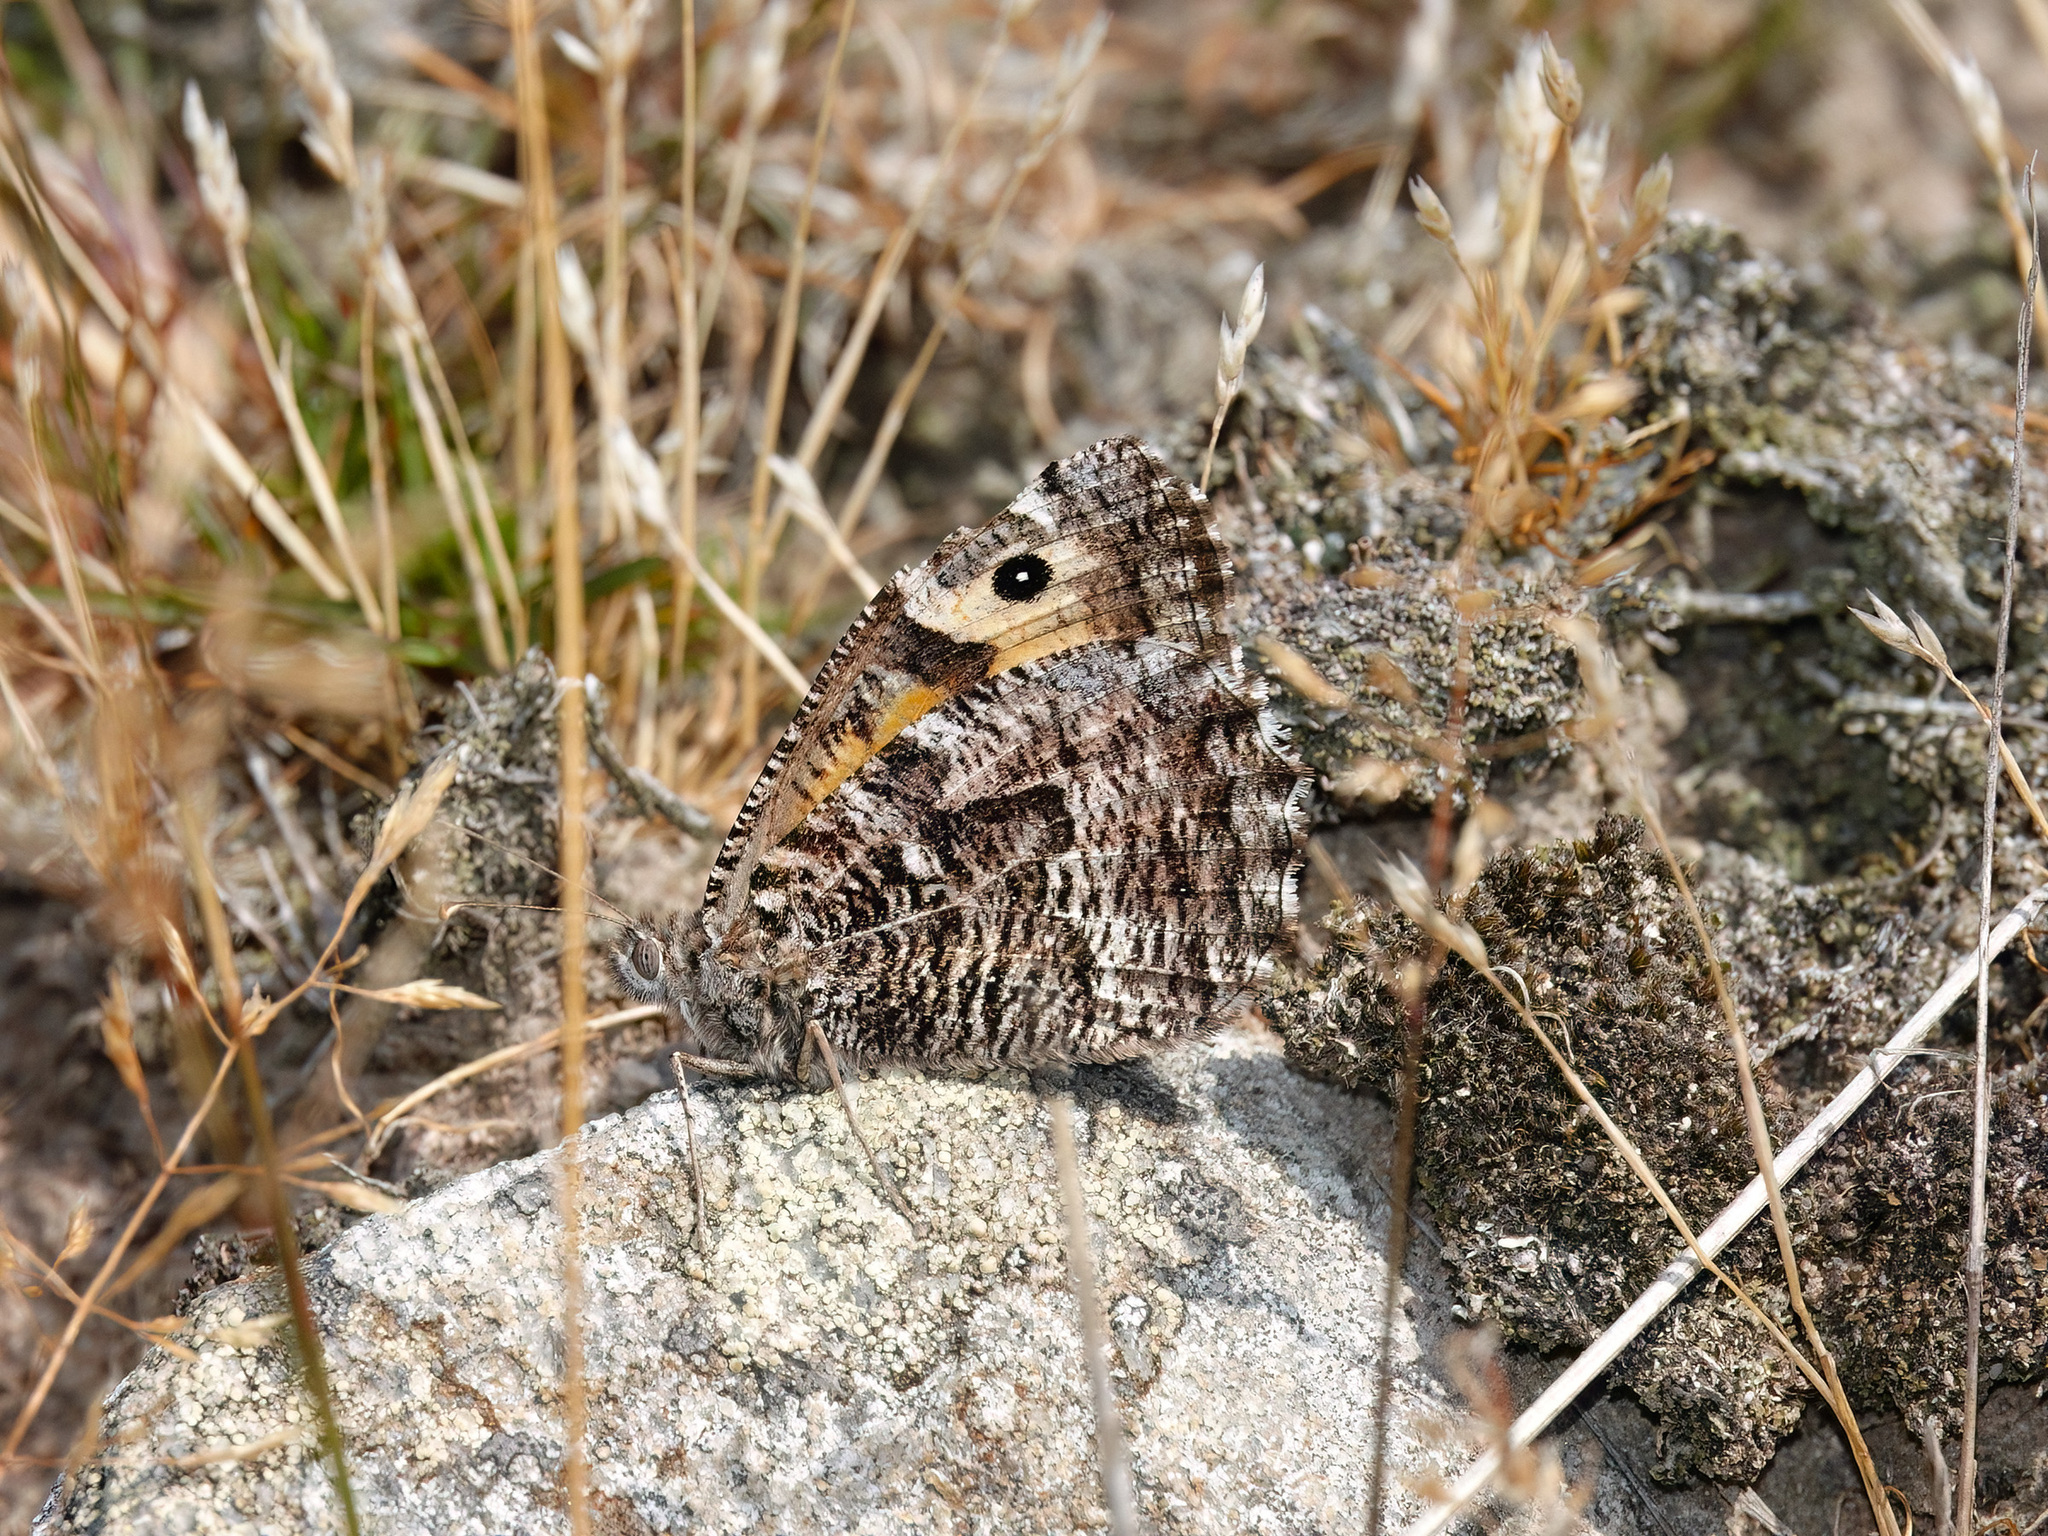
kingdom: Animalia
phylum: Arthropoda
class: Insecta
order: Lepidoptera
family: Nymphalidae
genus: Hipparchia
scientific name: Hipparchia semele
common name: Grayling
